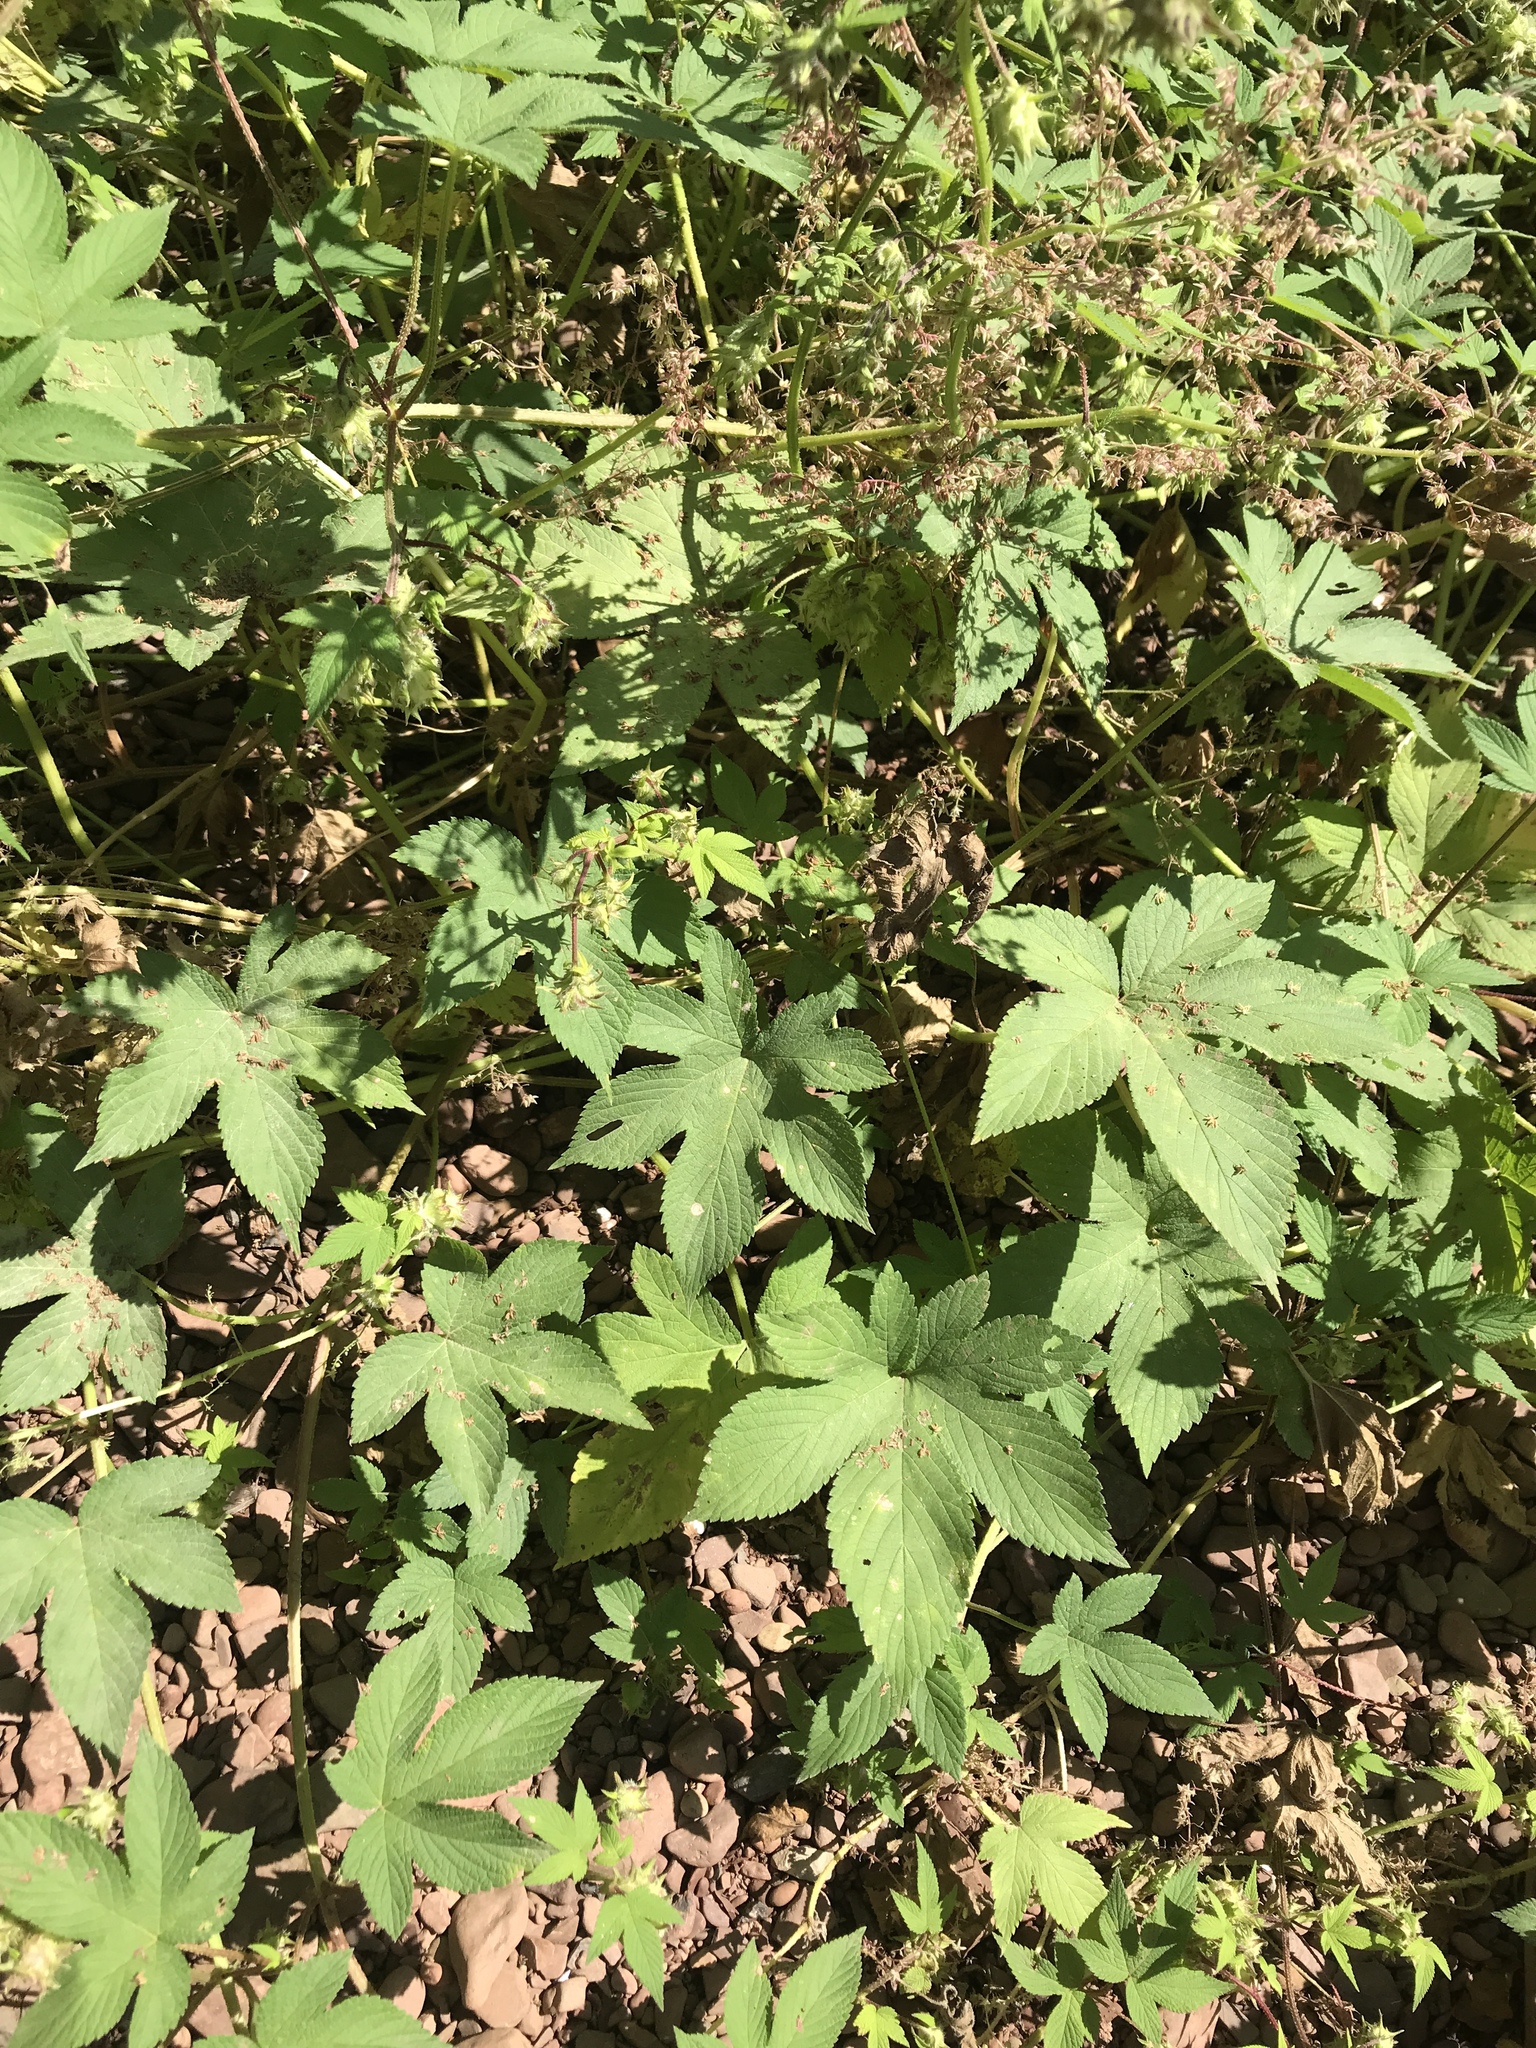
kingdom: Plantae
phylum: Tracheophyta
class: Magnoliopsida
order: Rosales
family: Cannabaceae
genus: Humulus
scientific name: Humulus scandens
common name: Japanese hop
